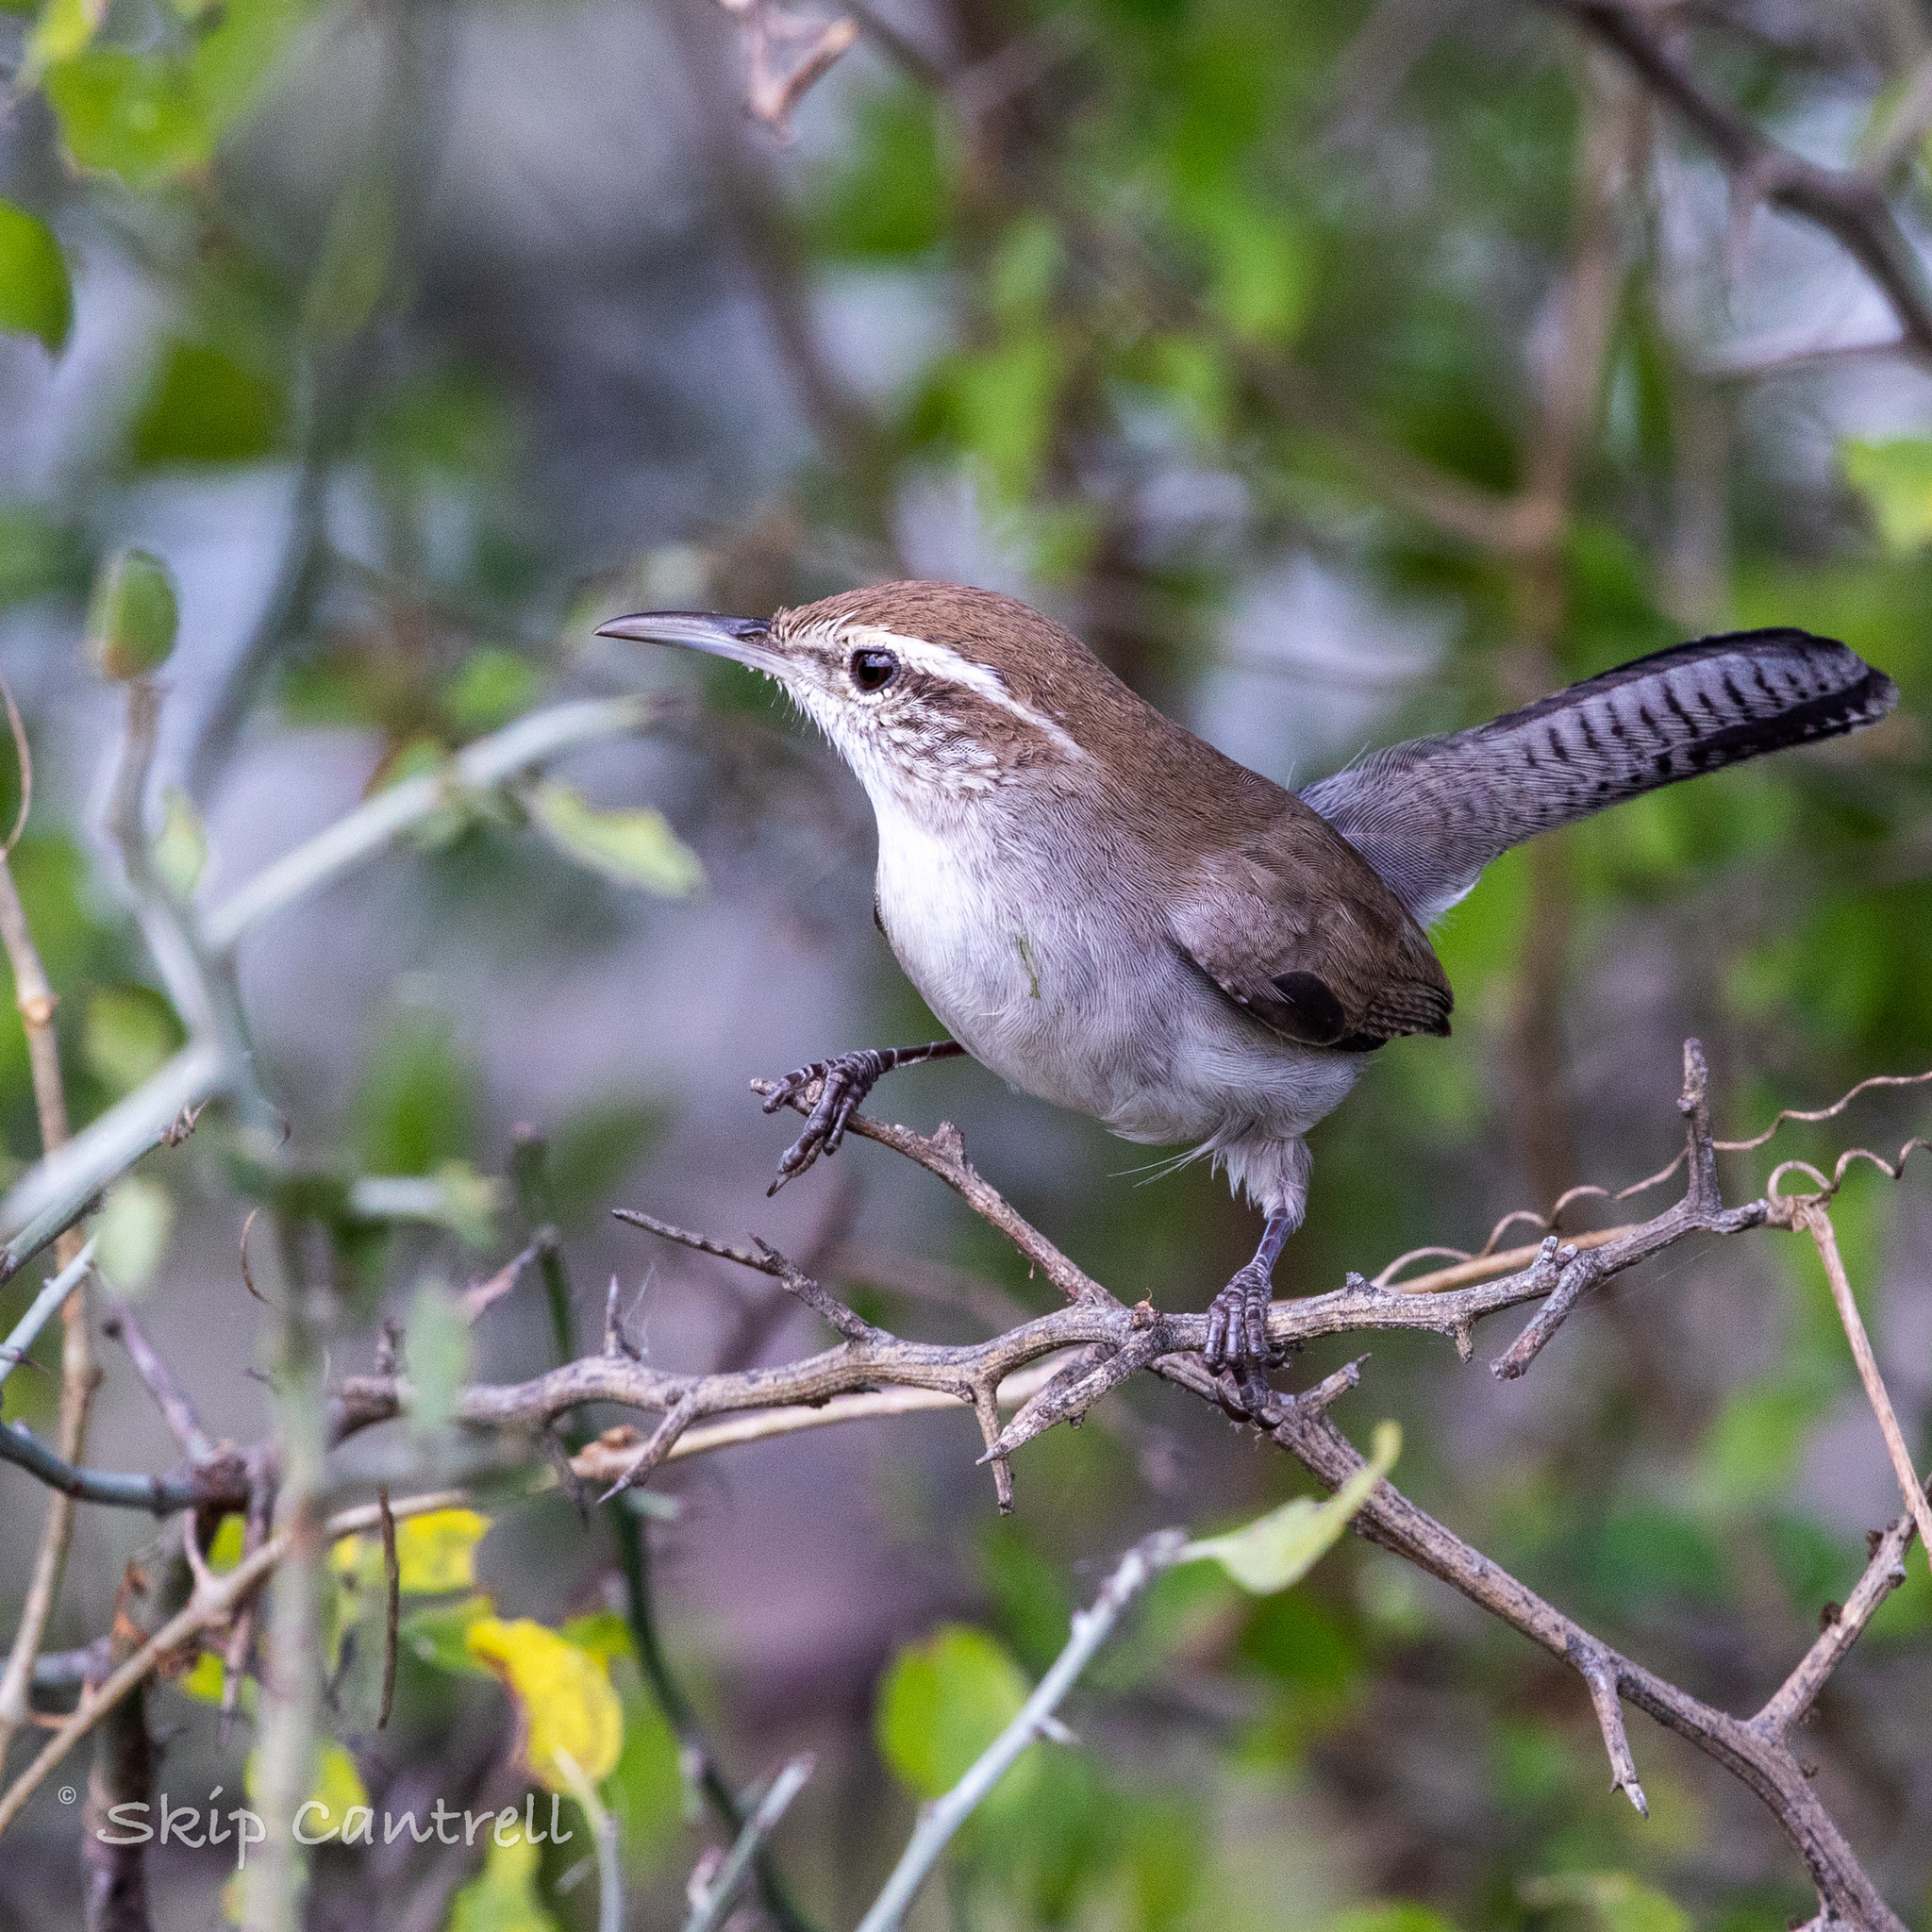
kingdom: Animalia
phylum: Chordata
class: Aves
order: Passeriformes
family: Troglodytidae
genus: Thryomanes
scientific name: Thryomanes bewickii
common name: Bewick's wren
